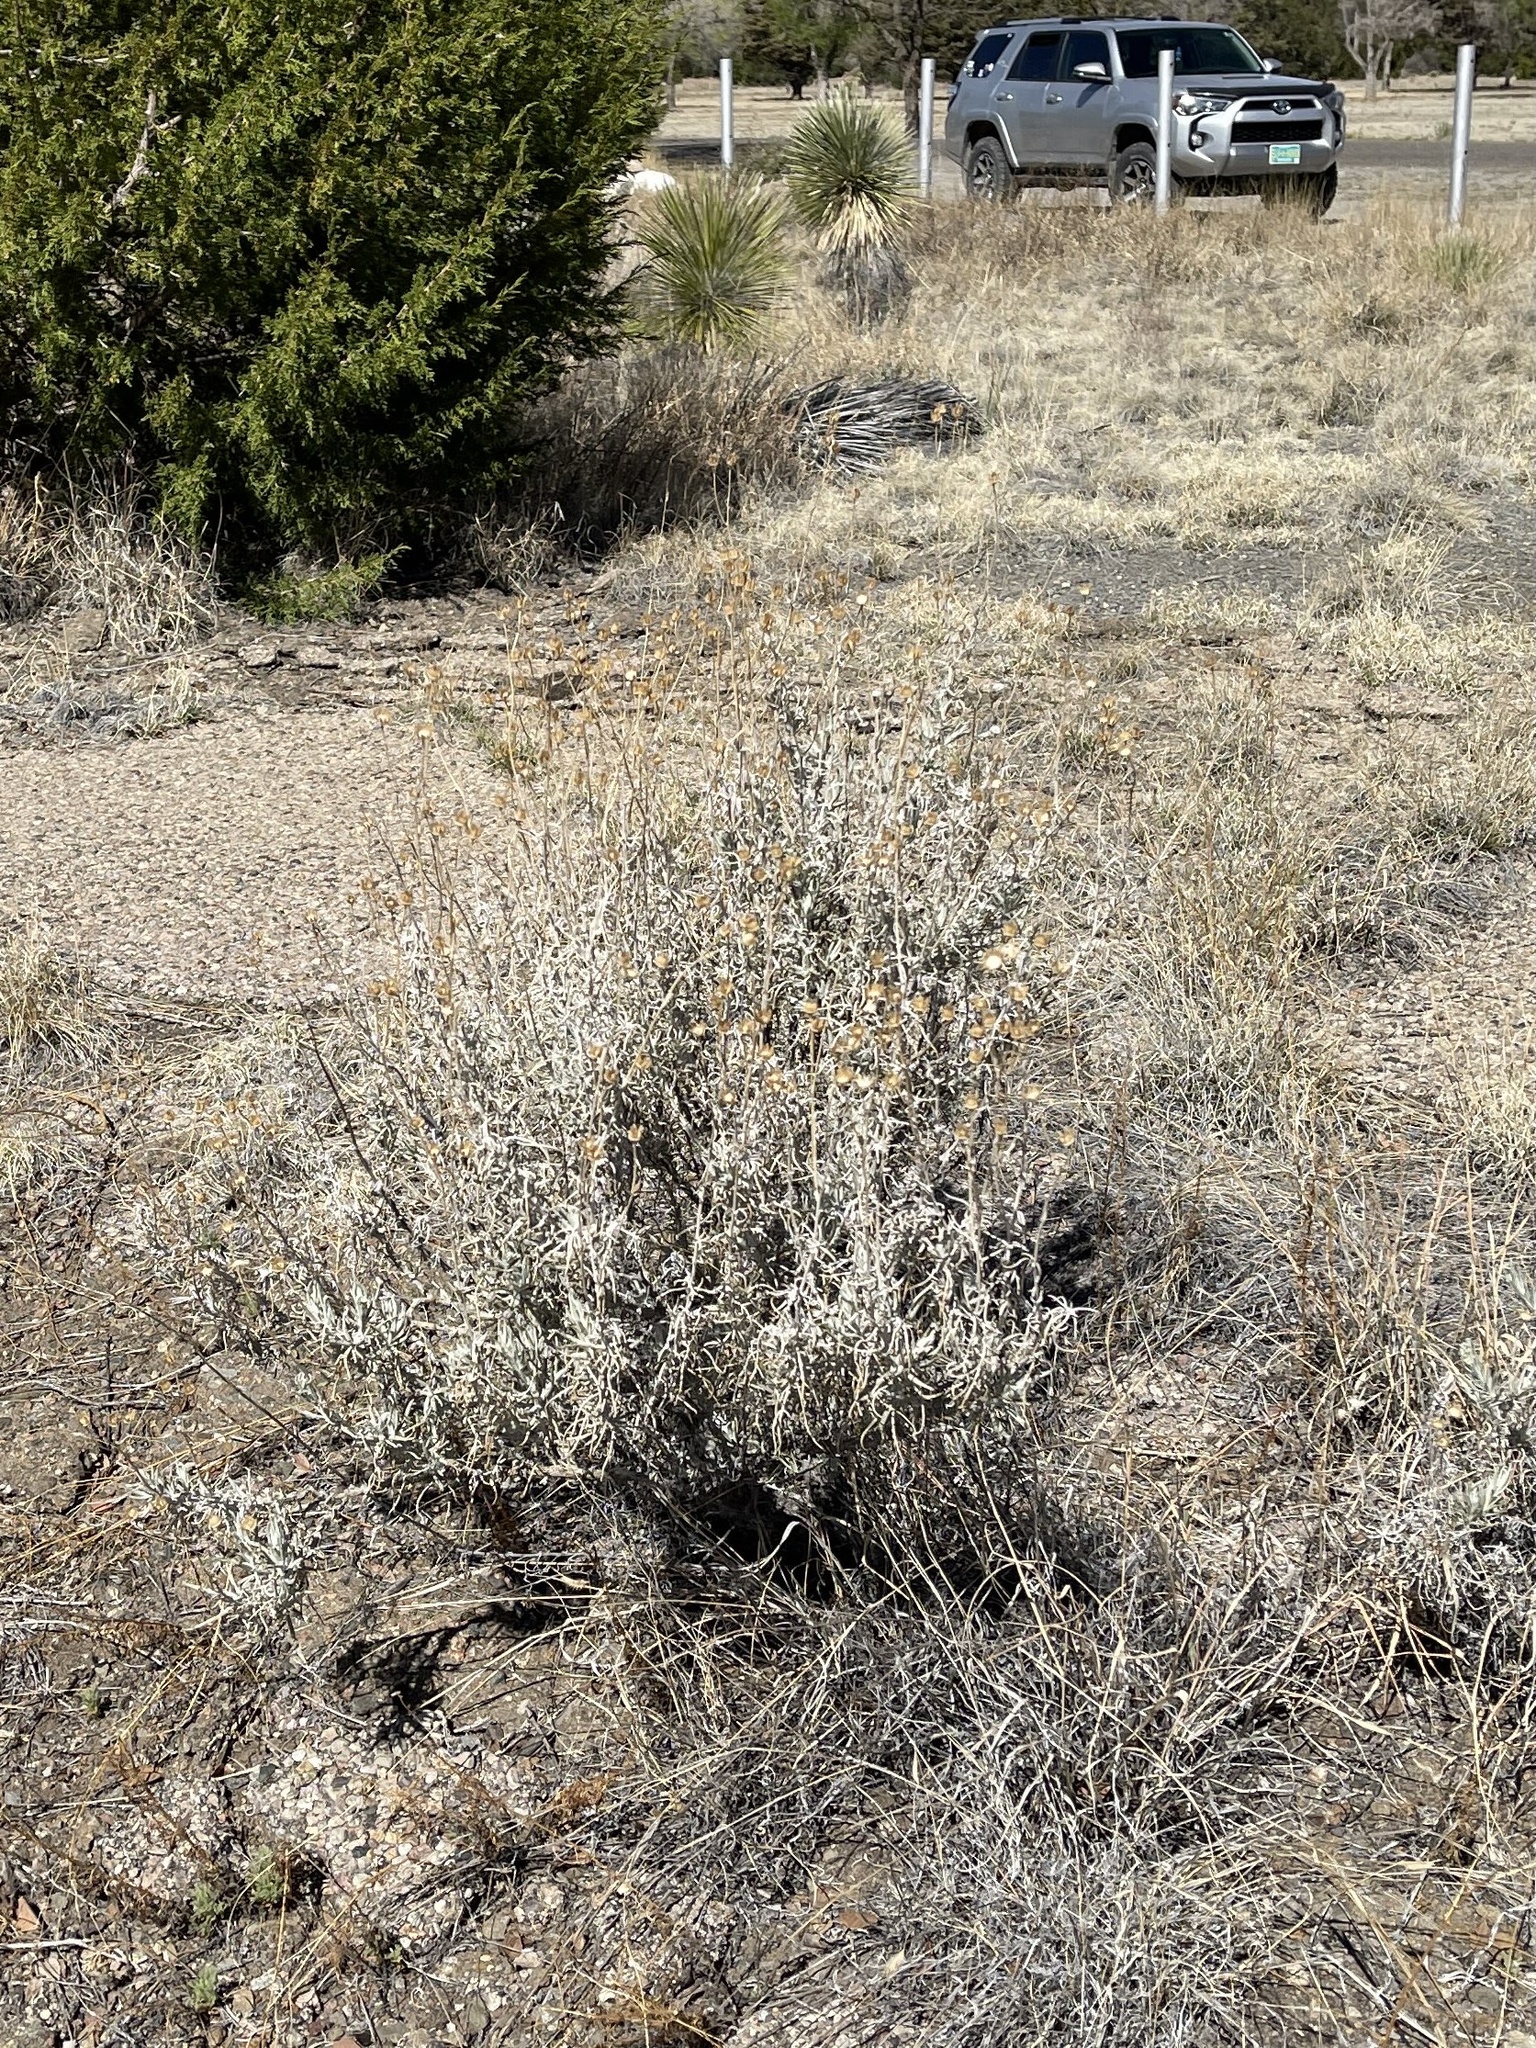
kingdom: Plantae
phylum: Tracheophyta
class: Magnoliopsida
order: Asterales
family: Asteraceae
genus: Senecio
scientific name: Senecio flaccidus
